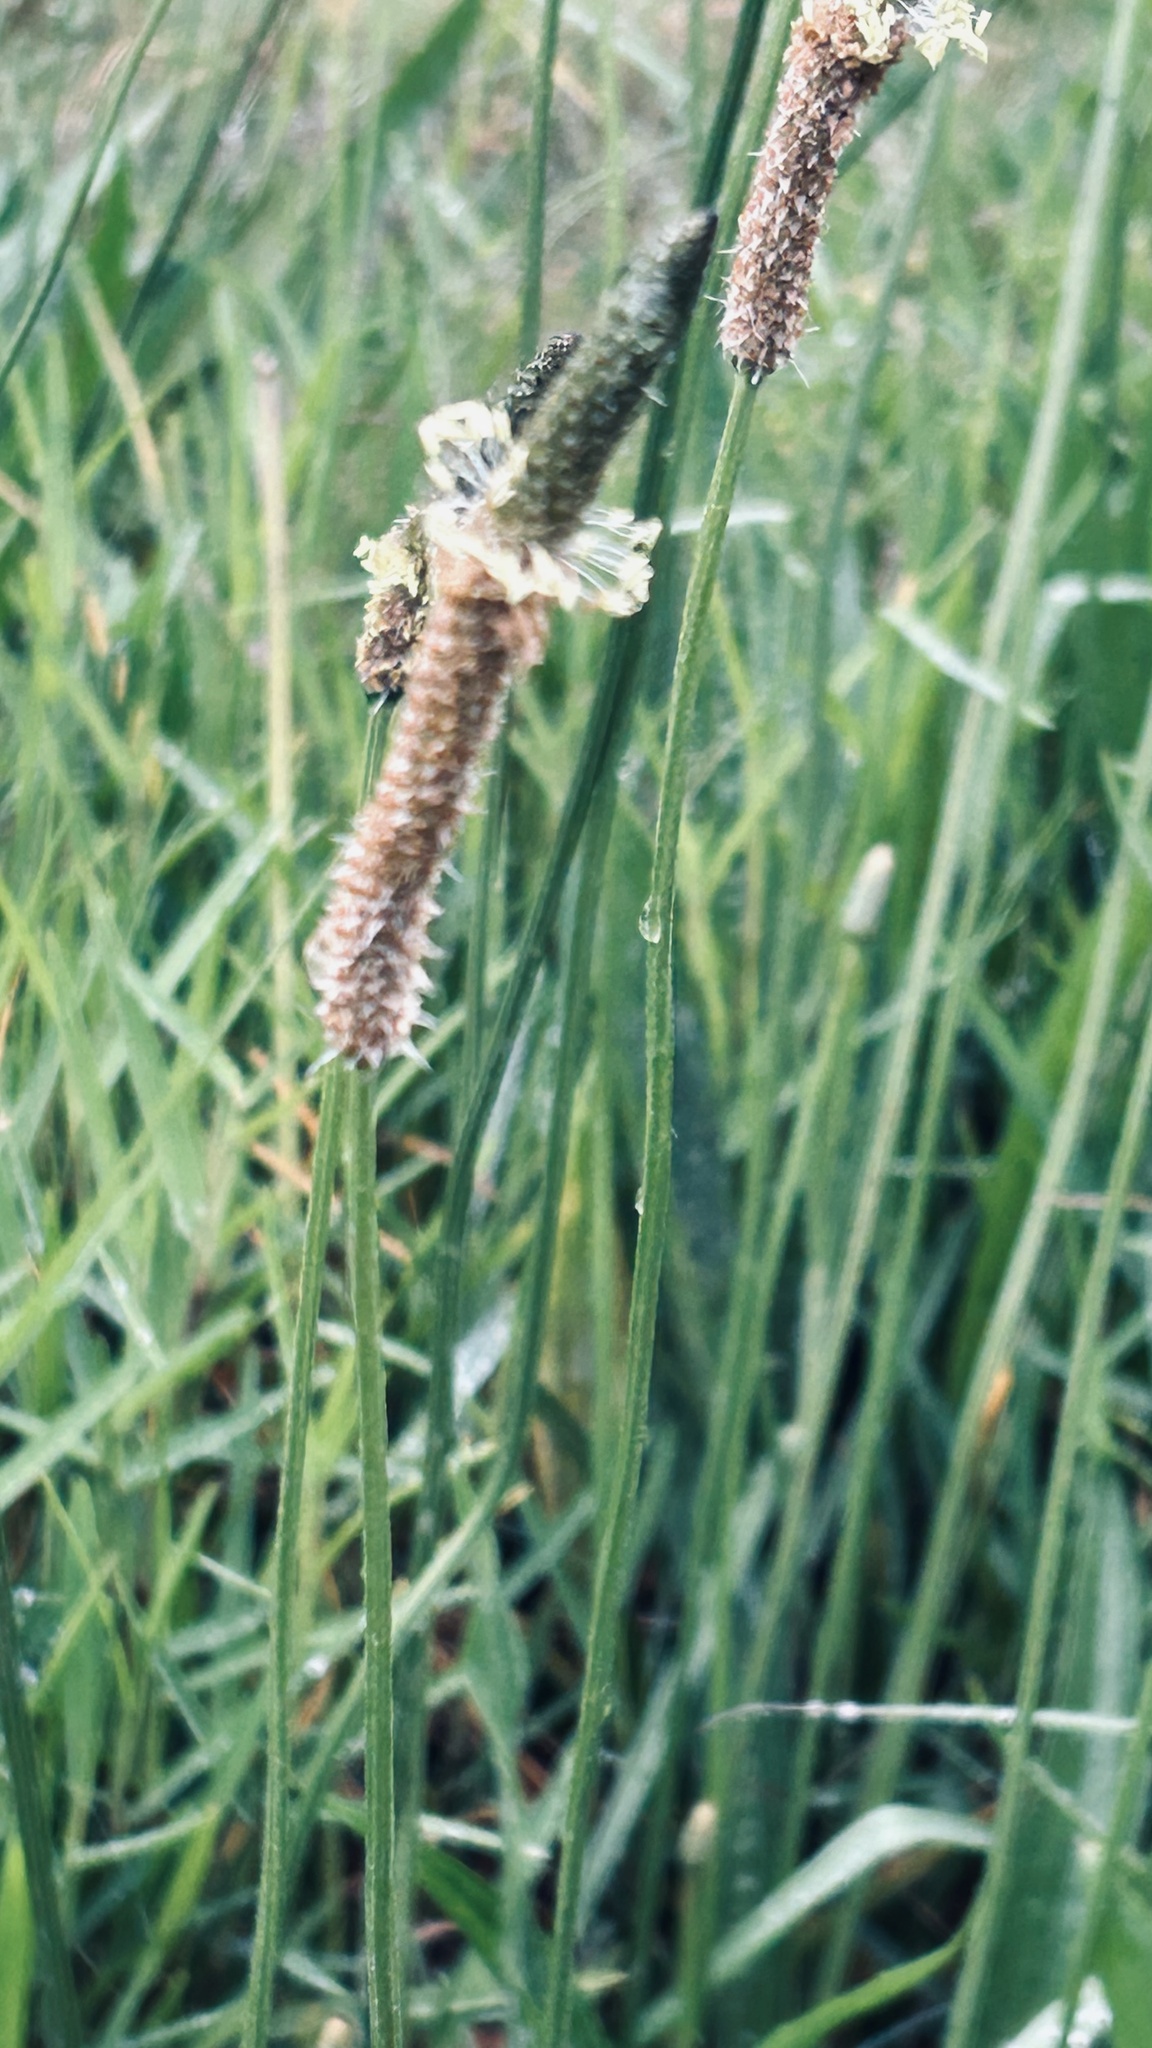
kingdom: Plantae
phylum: Tracheophyta
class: Magnoliopsida
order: Lamiales
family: Plantaginaceae
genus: Plantago
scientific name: Plantago lanceolata
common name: Ribwort plantain
